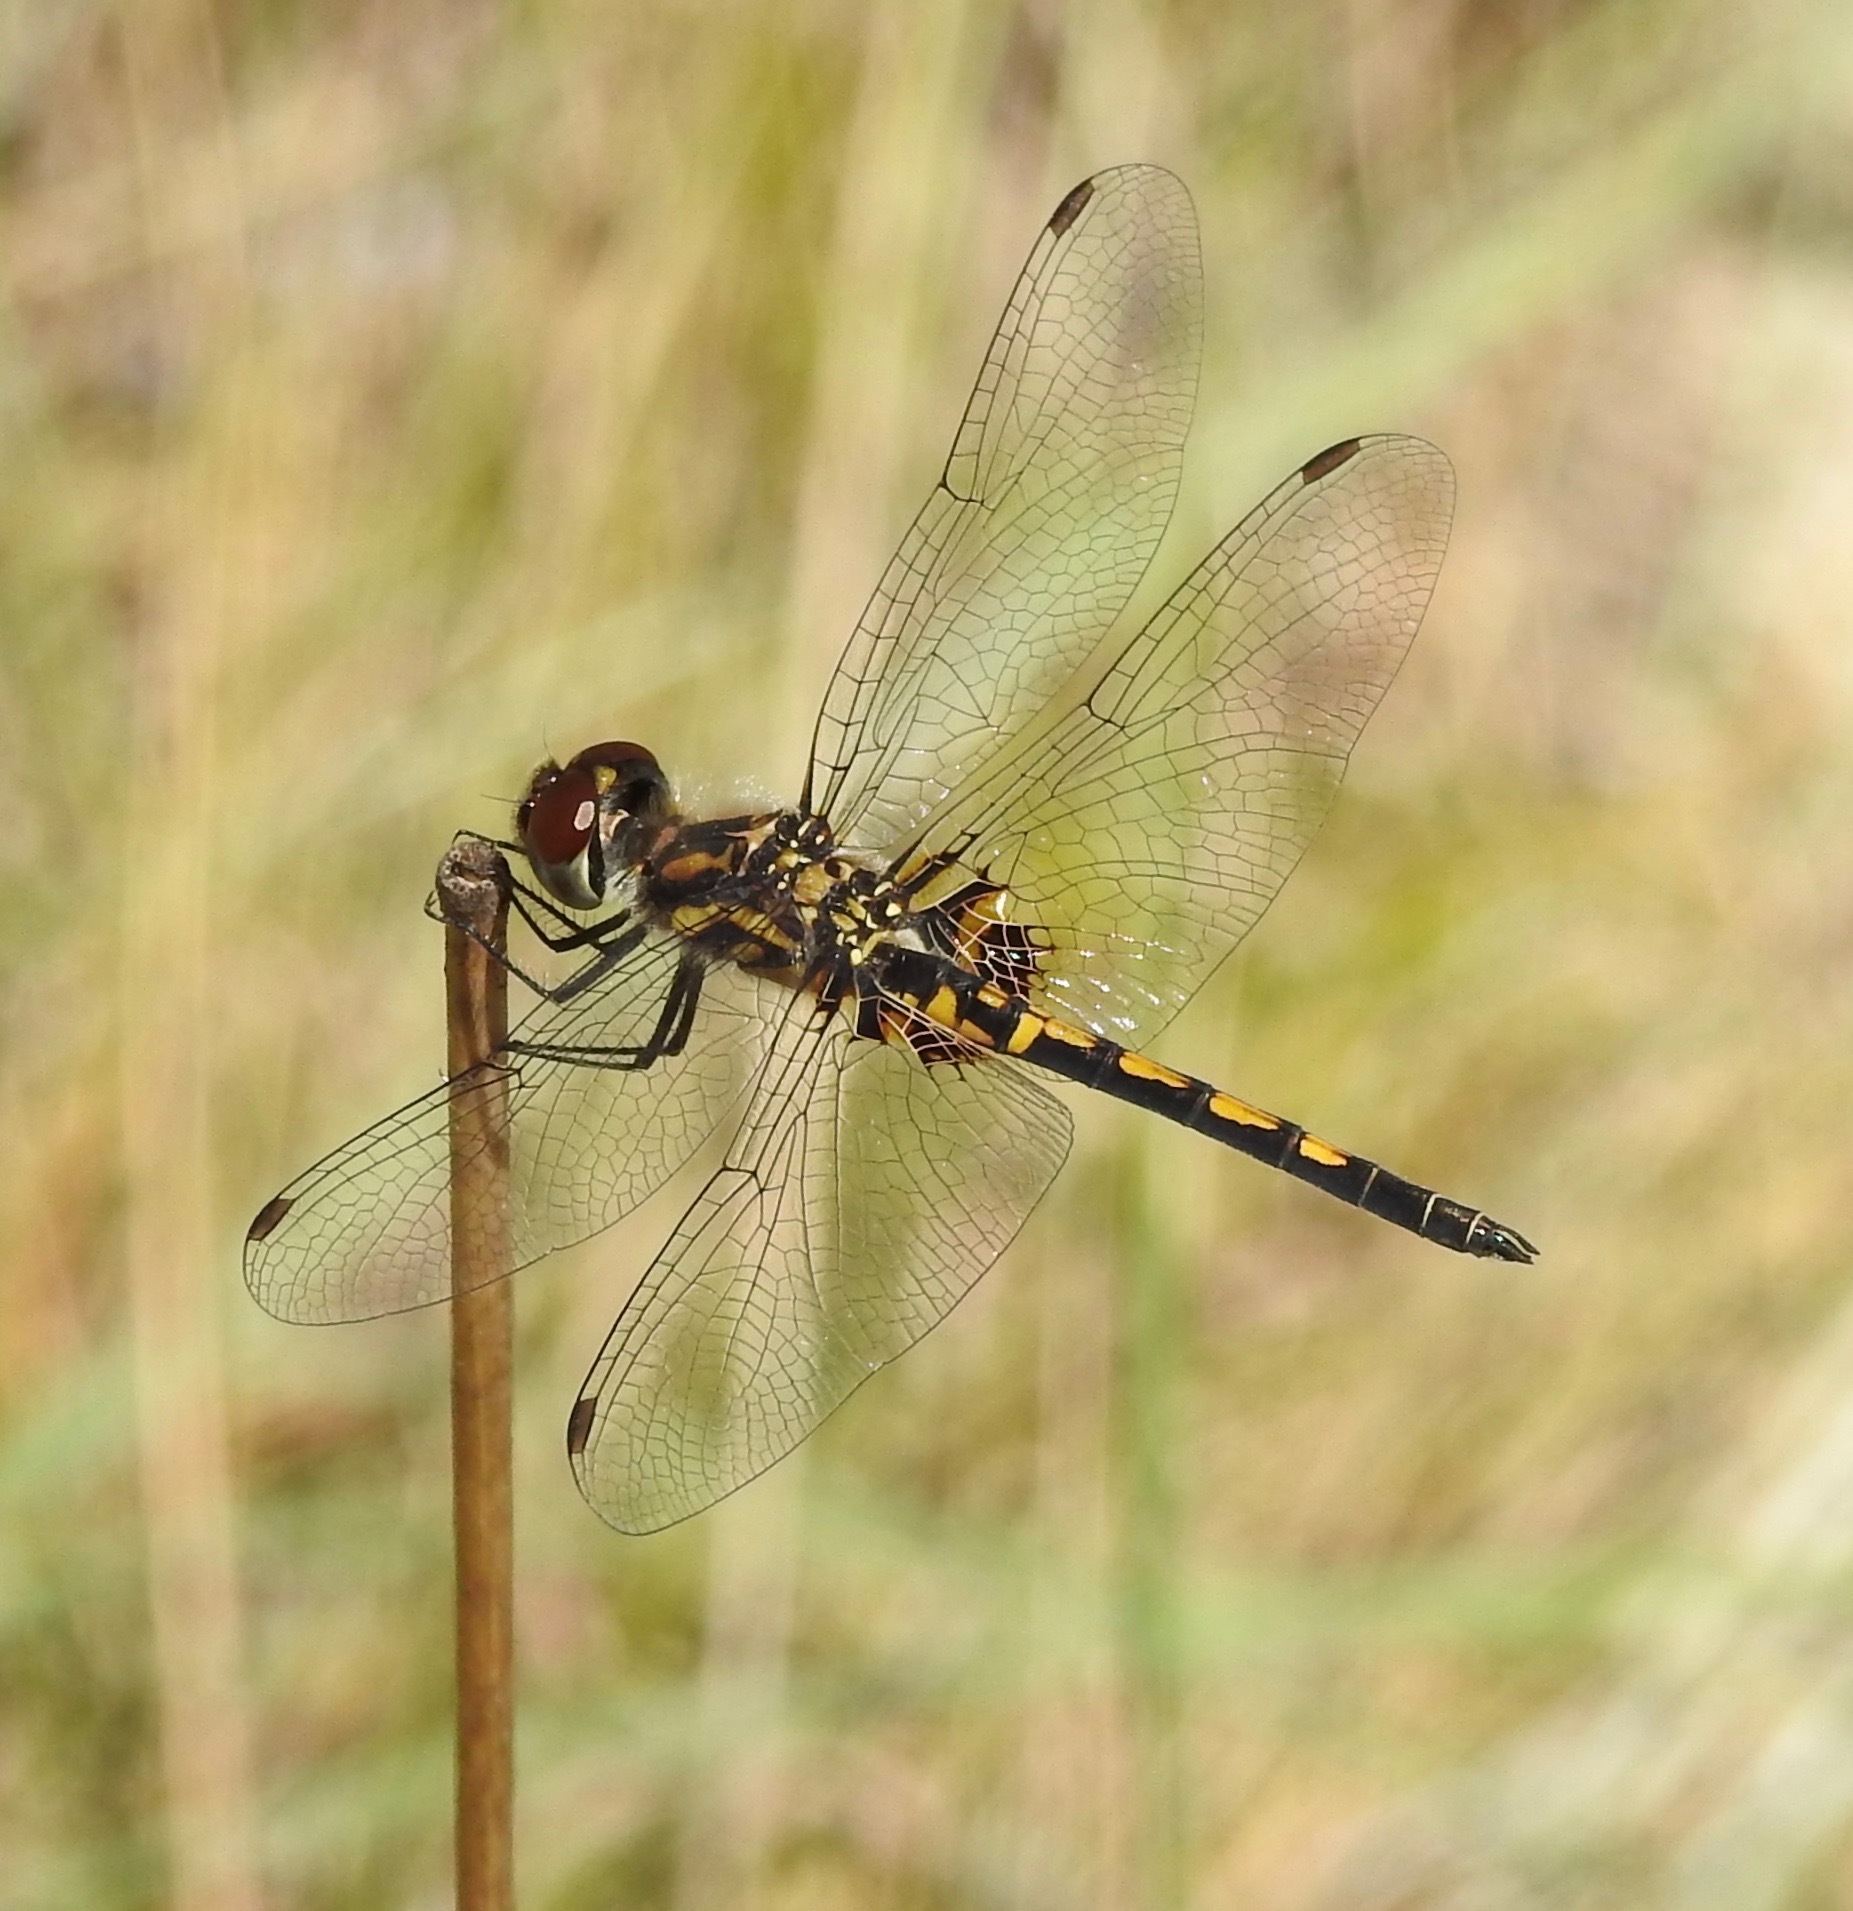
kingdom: Animalia
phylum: Arthropoda
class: Insecta
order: Odonata
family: Libellulidae
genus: Celithemis
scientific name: Celithemis ornata
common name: Ornate pennant
